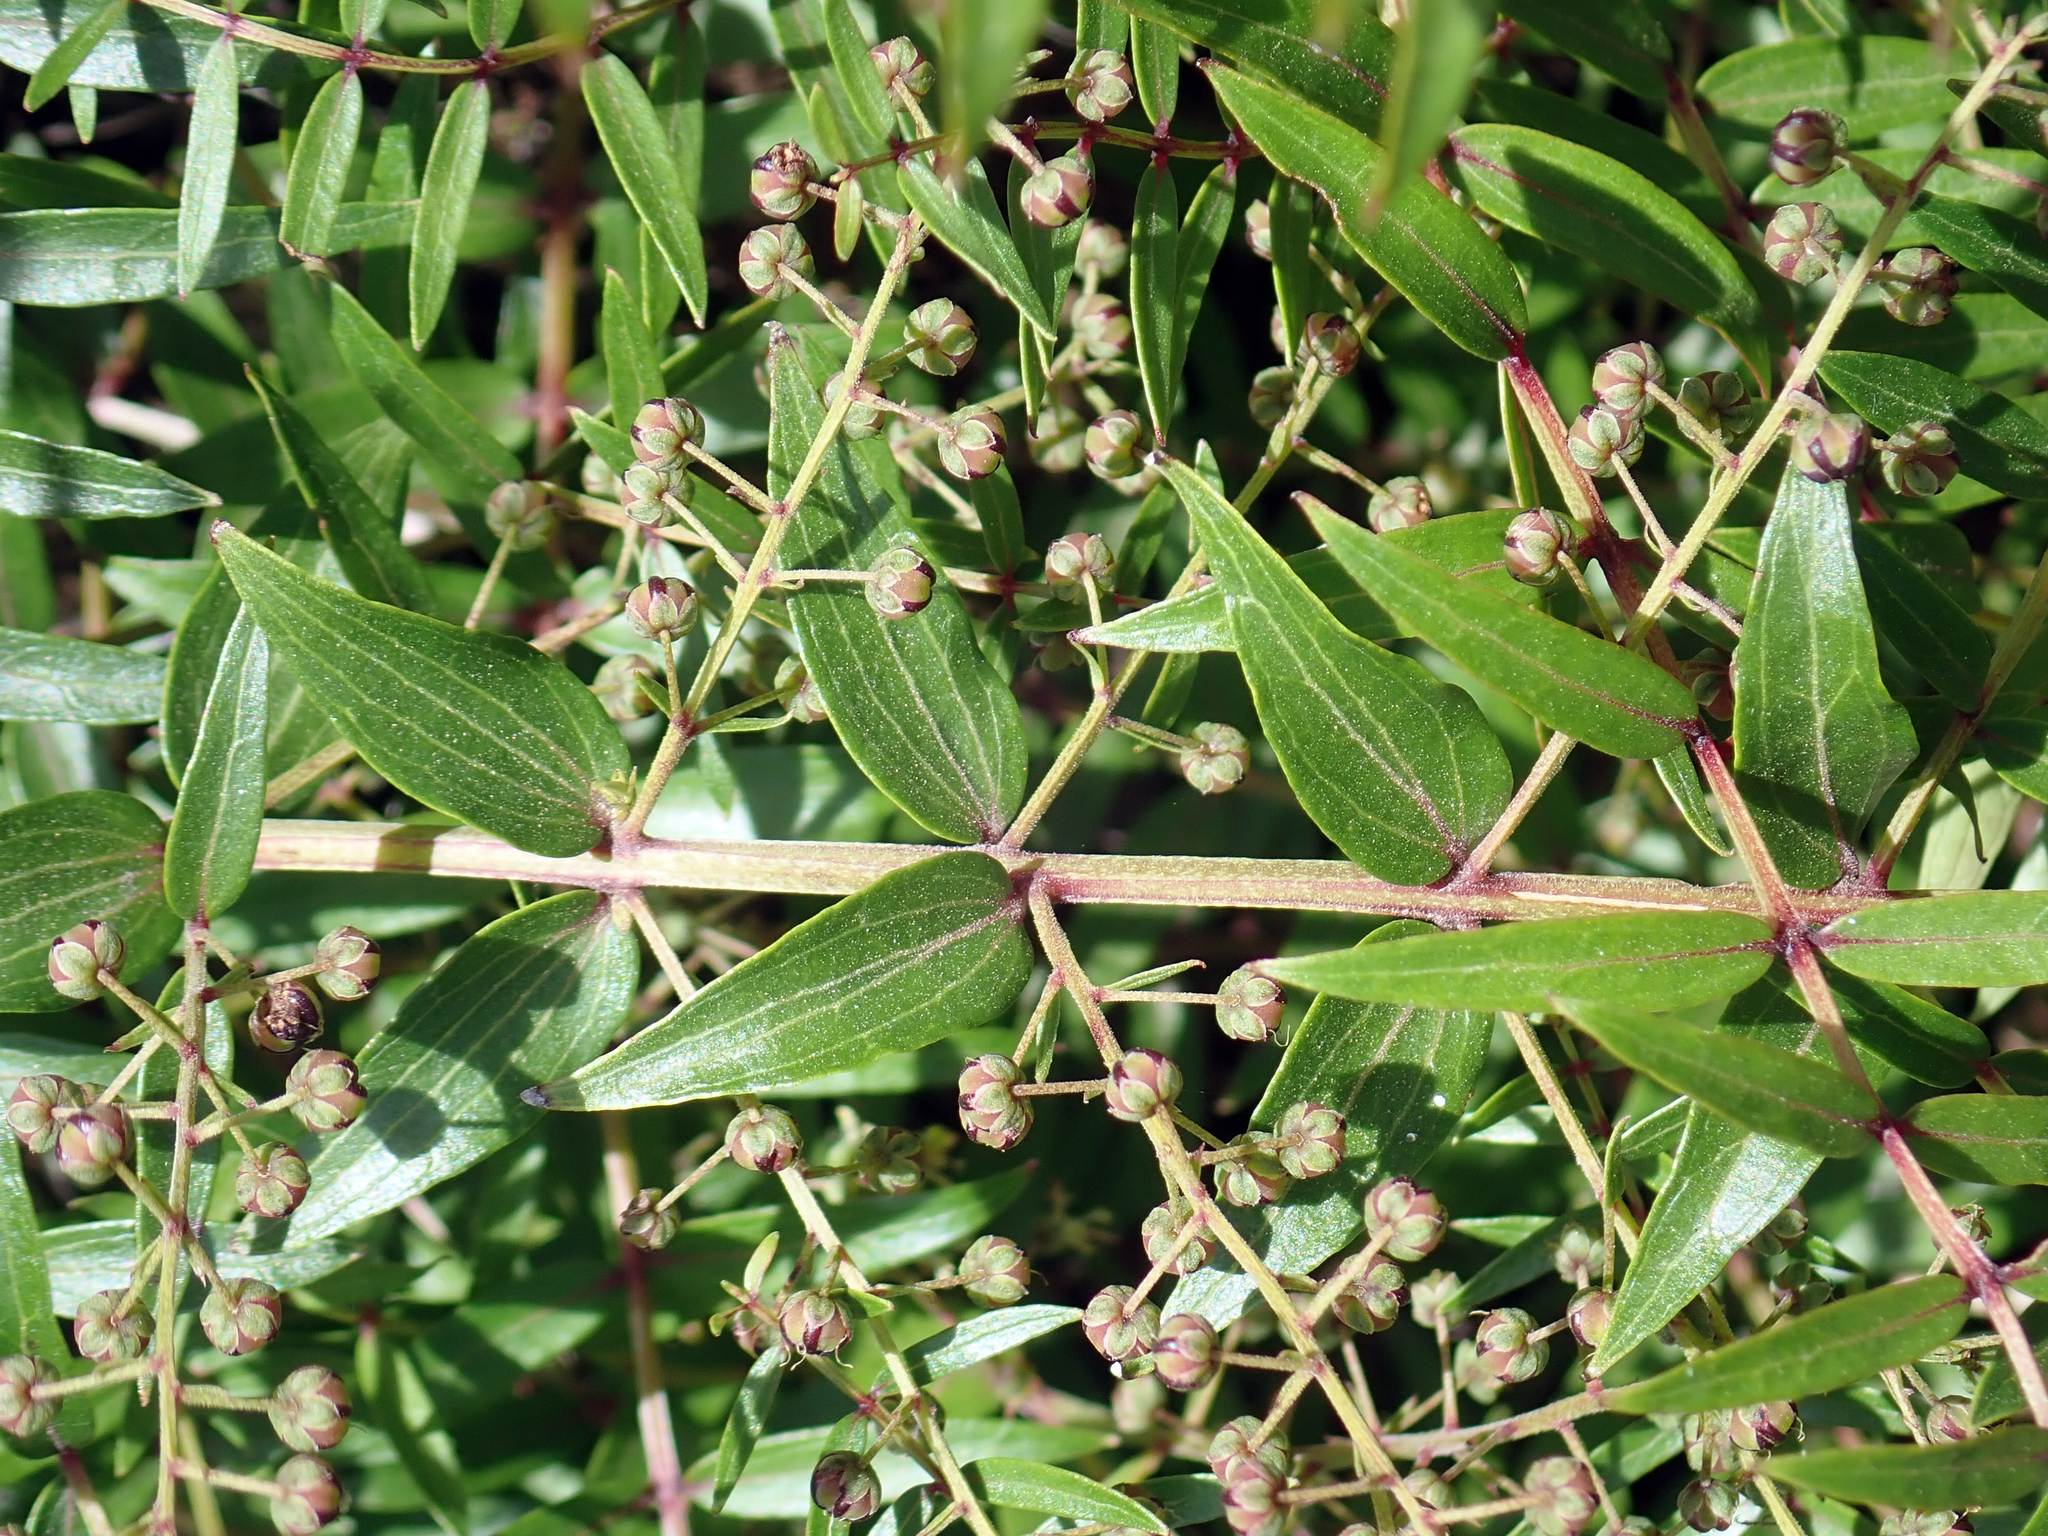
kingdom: Plantae
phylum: Tracheophyta
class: Magnoliopsida
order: Cucurbitales
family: Coriariaceae
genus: Coriaria
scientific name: Coriaria pteridoides
